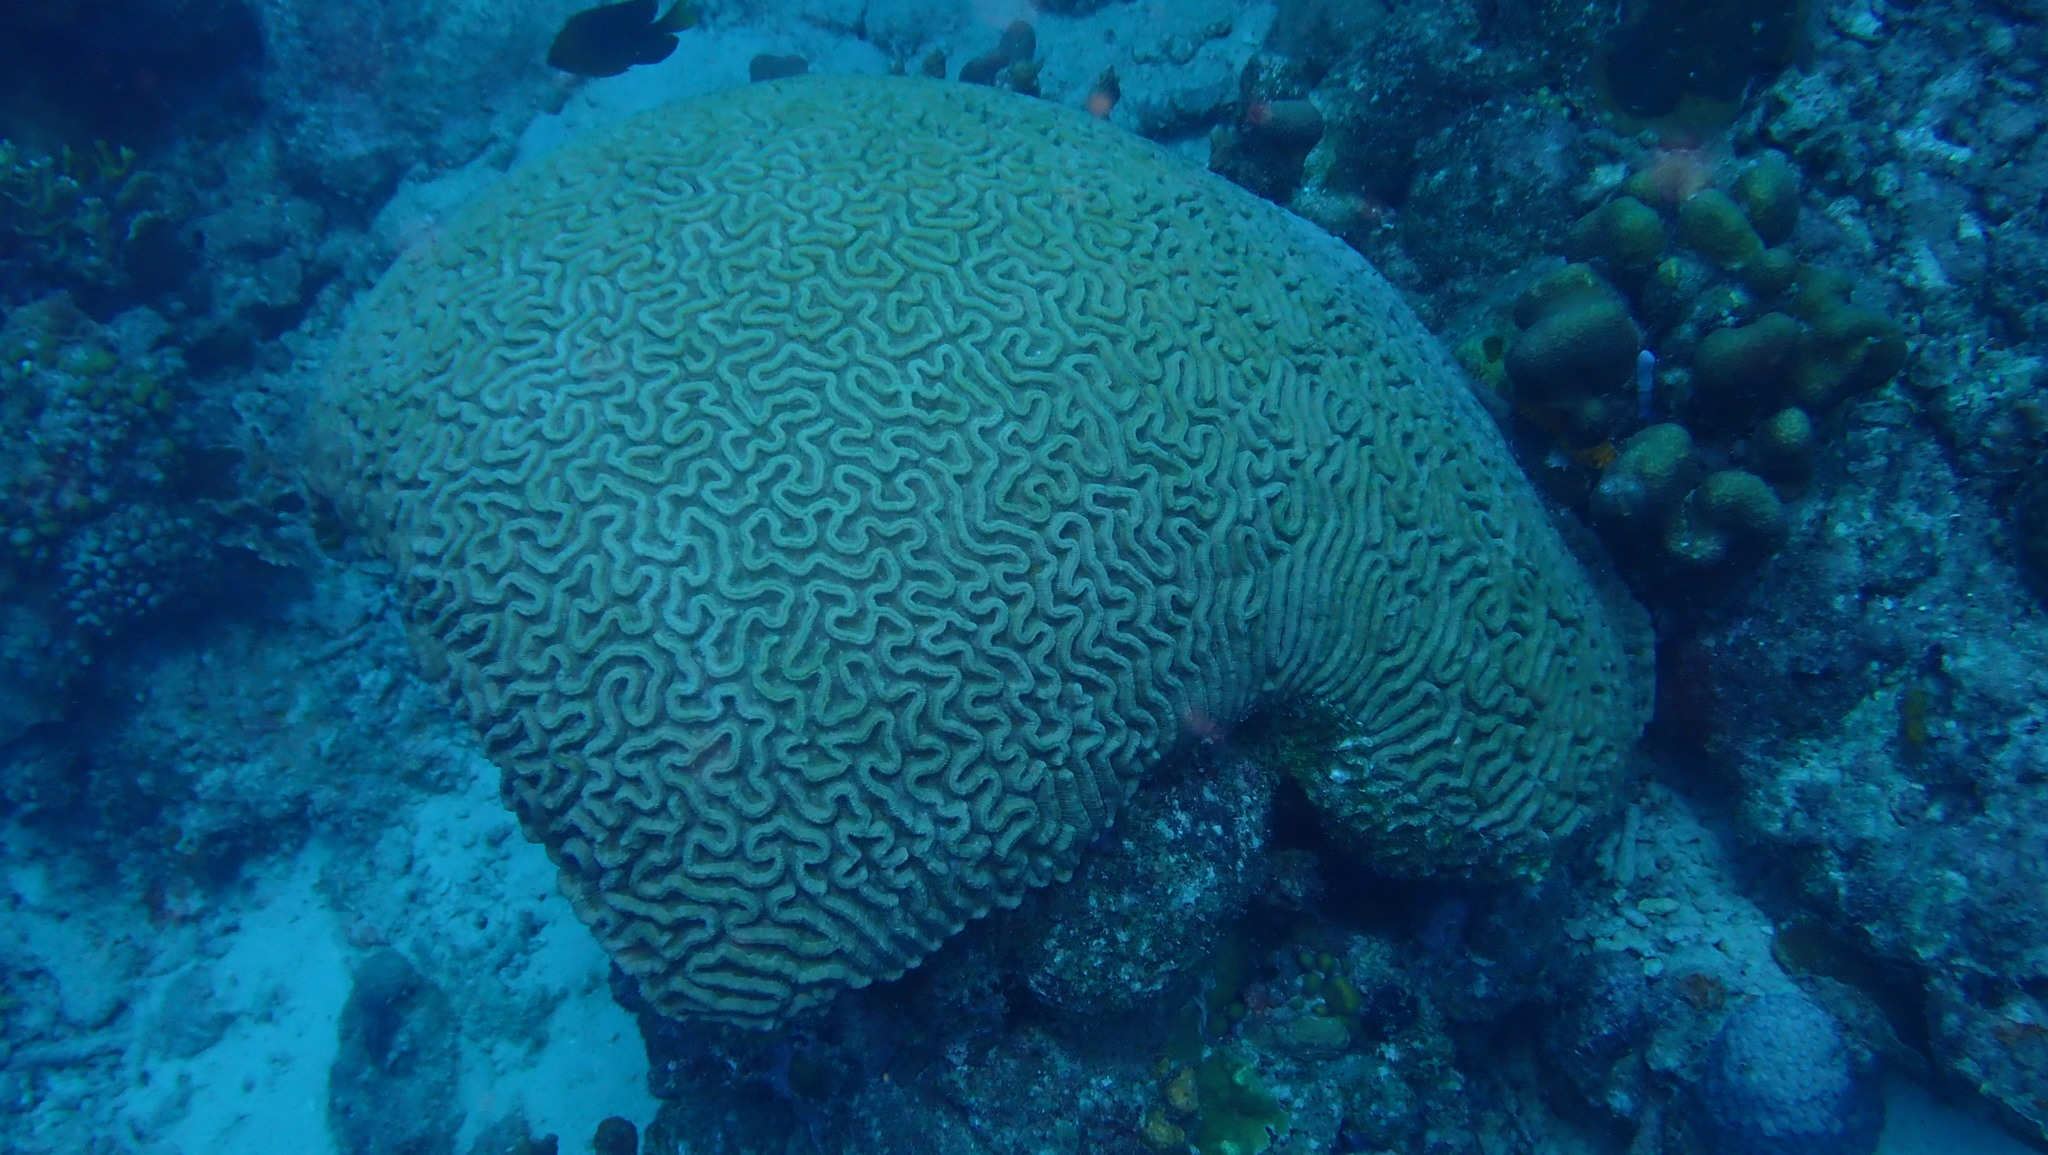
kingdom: Animalia
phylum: Cnidaria
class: Anthozoa
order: Scleractinia
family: Faviidae
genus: Colpophyllia
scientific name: Colpophyllia natans
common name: Boulder brain coral
